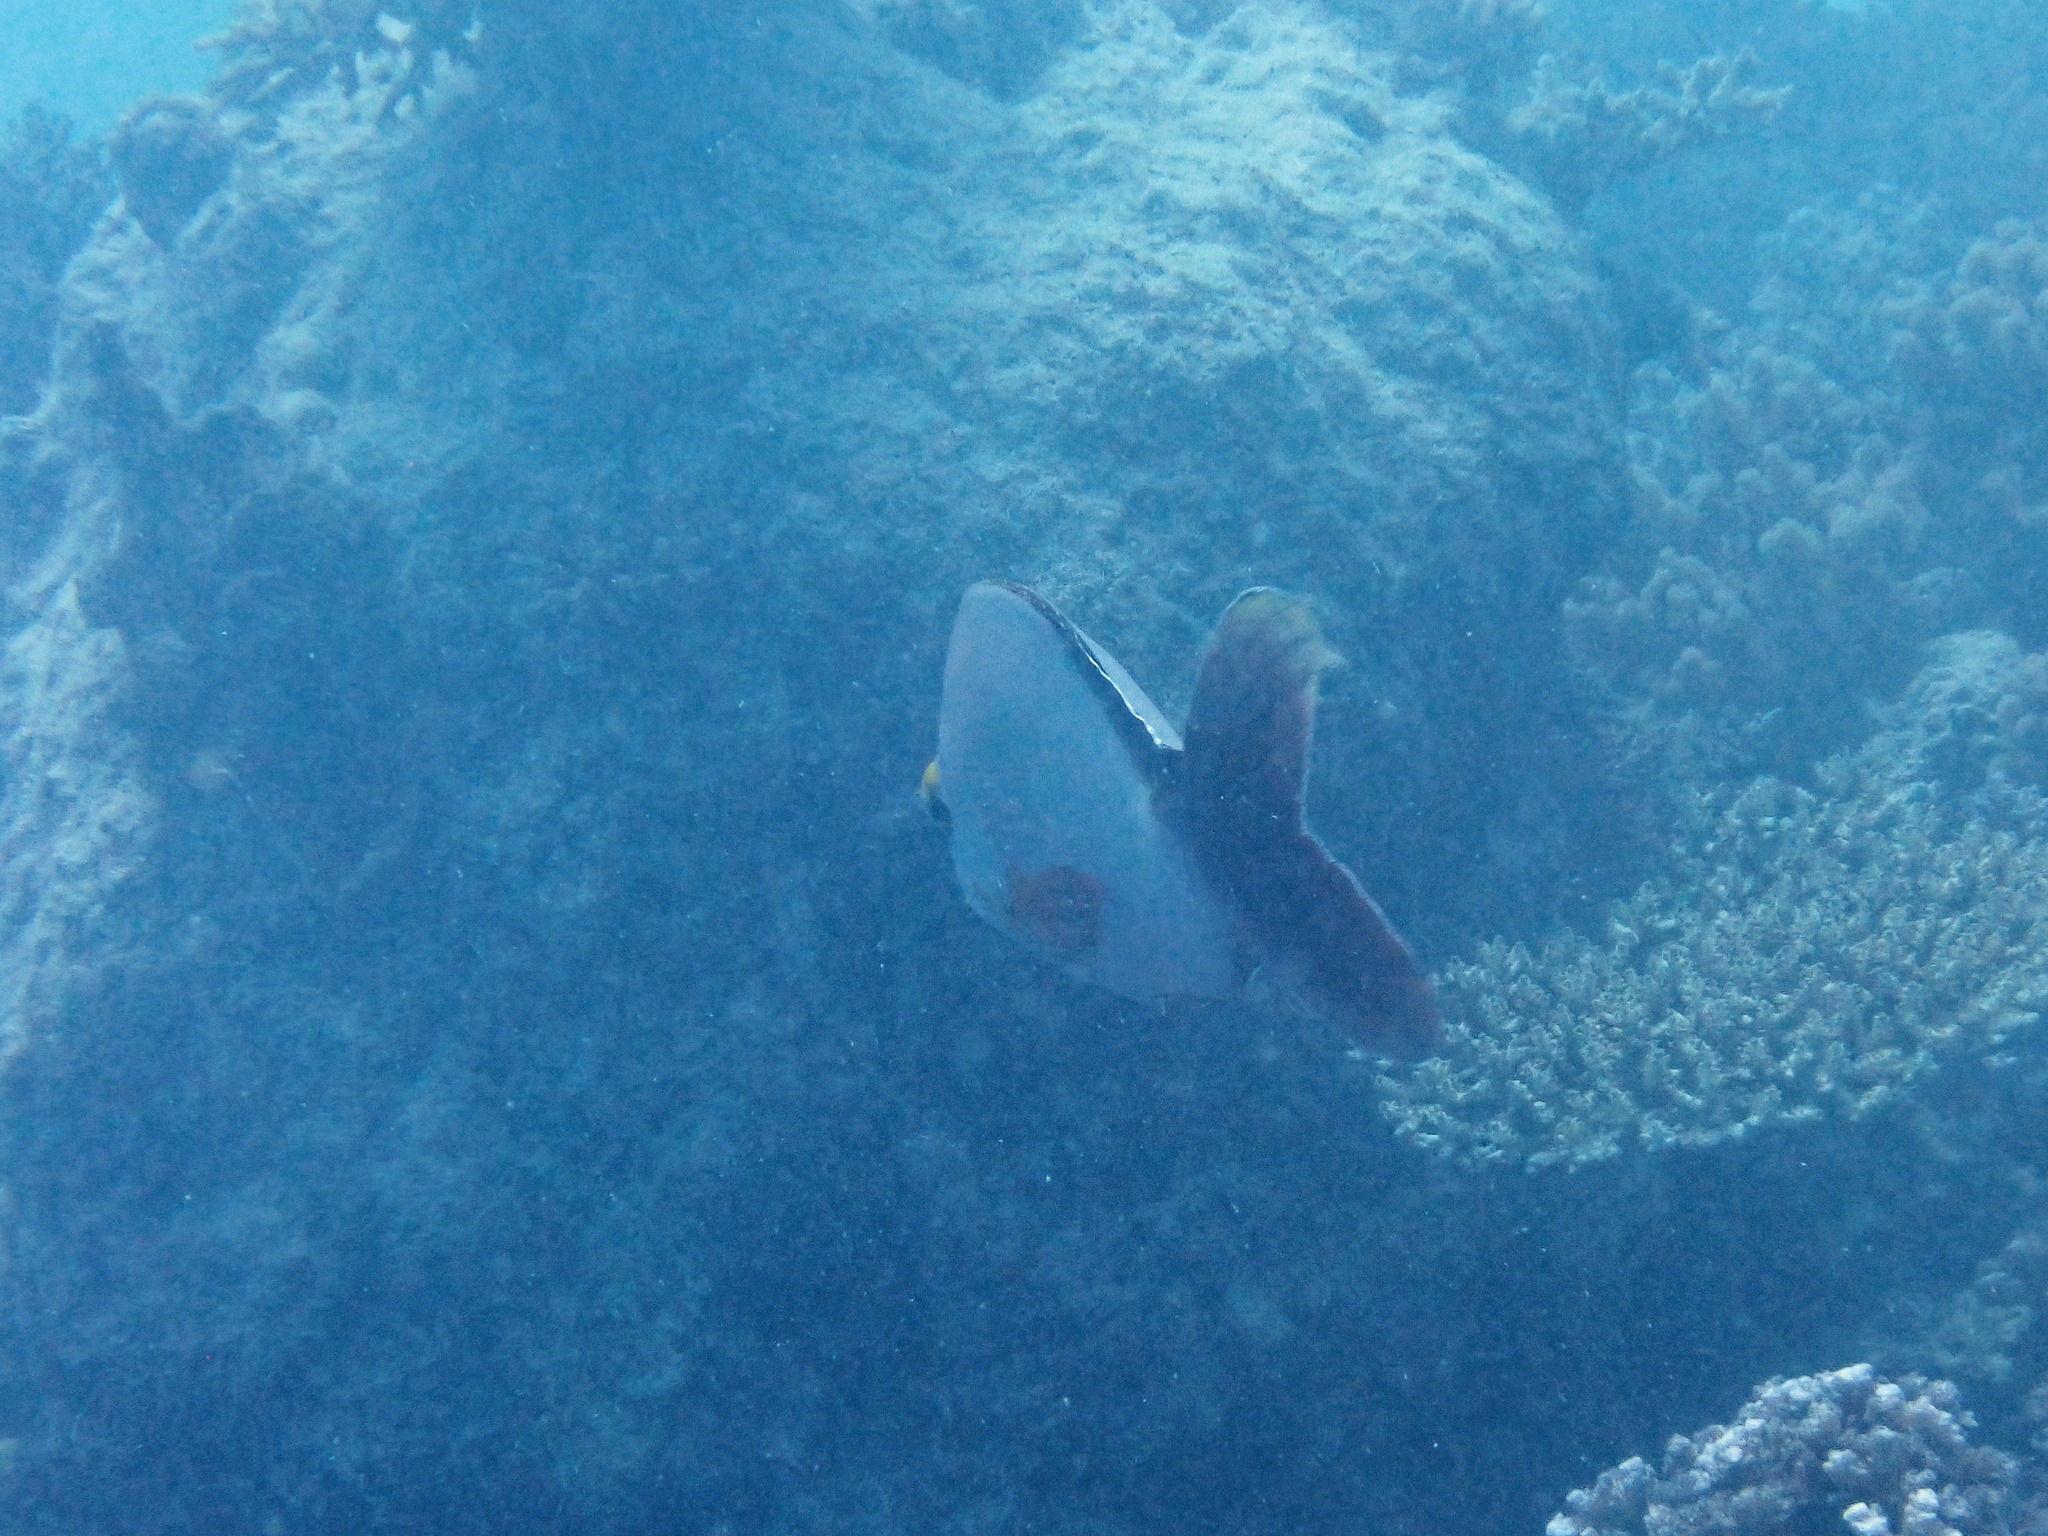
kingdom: Animalia
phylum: Chordata
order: Perciformes
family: Lutjanidae
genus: Lutjanus
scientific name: Lutjanus gibbus
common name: Humpback snapper
